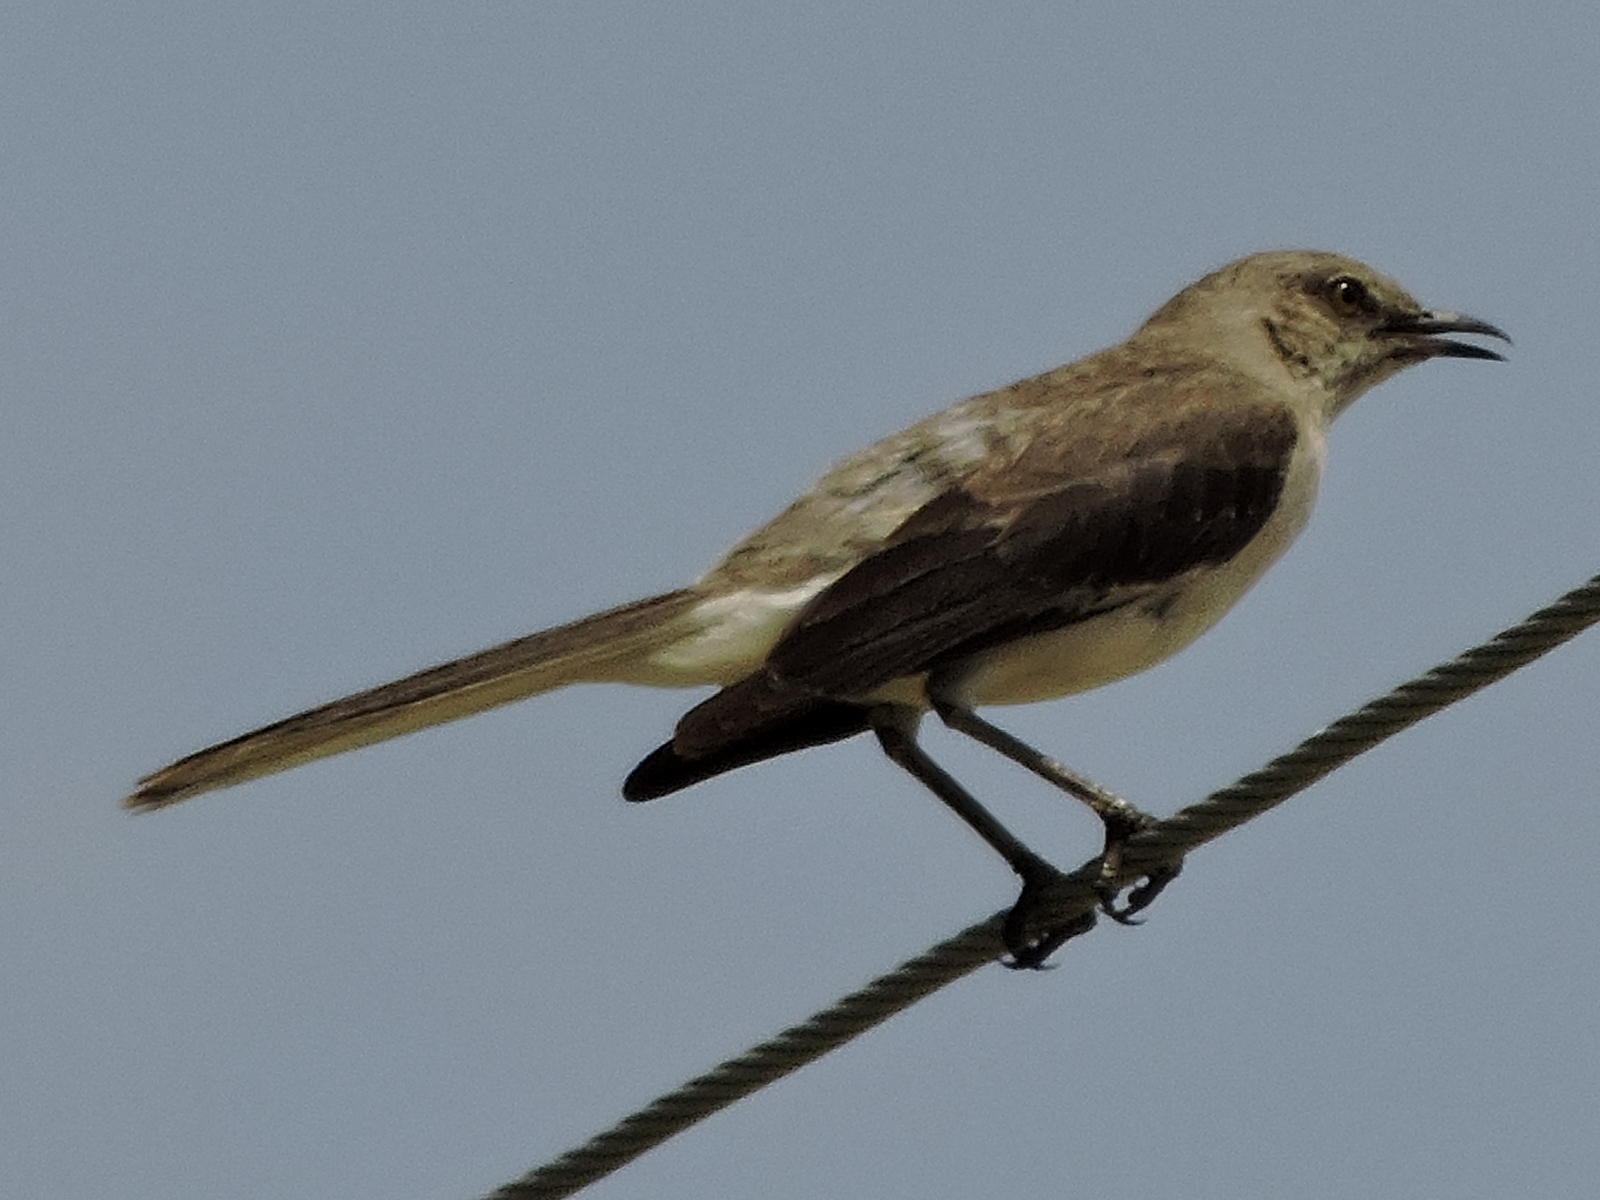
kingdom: Animalia
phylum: Chordata
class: Aves
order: Passeriformes
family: Mimidae
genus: Mimus
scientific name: Mimus polyglottos
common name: Northern mockingbird
